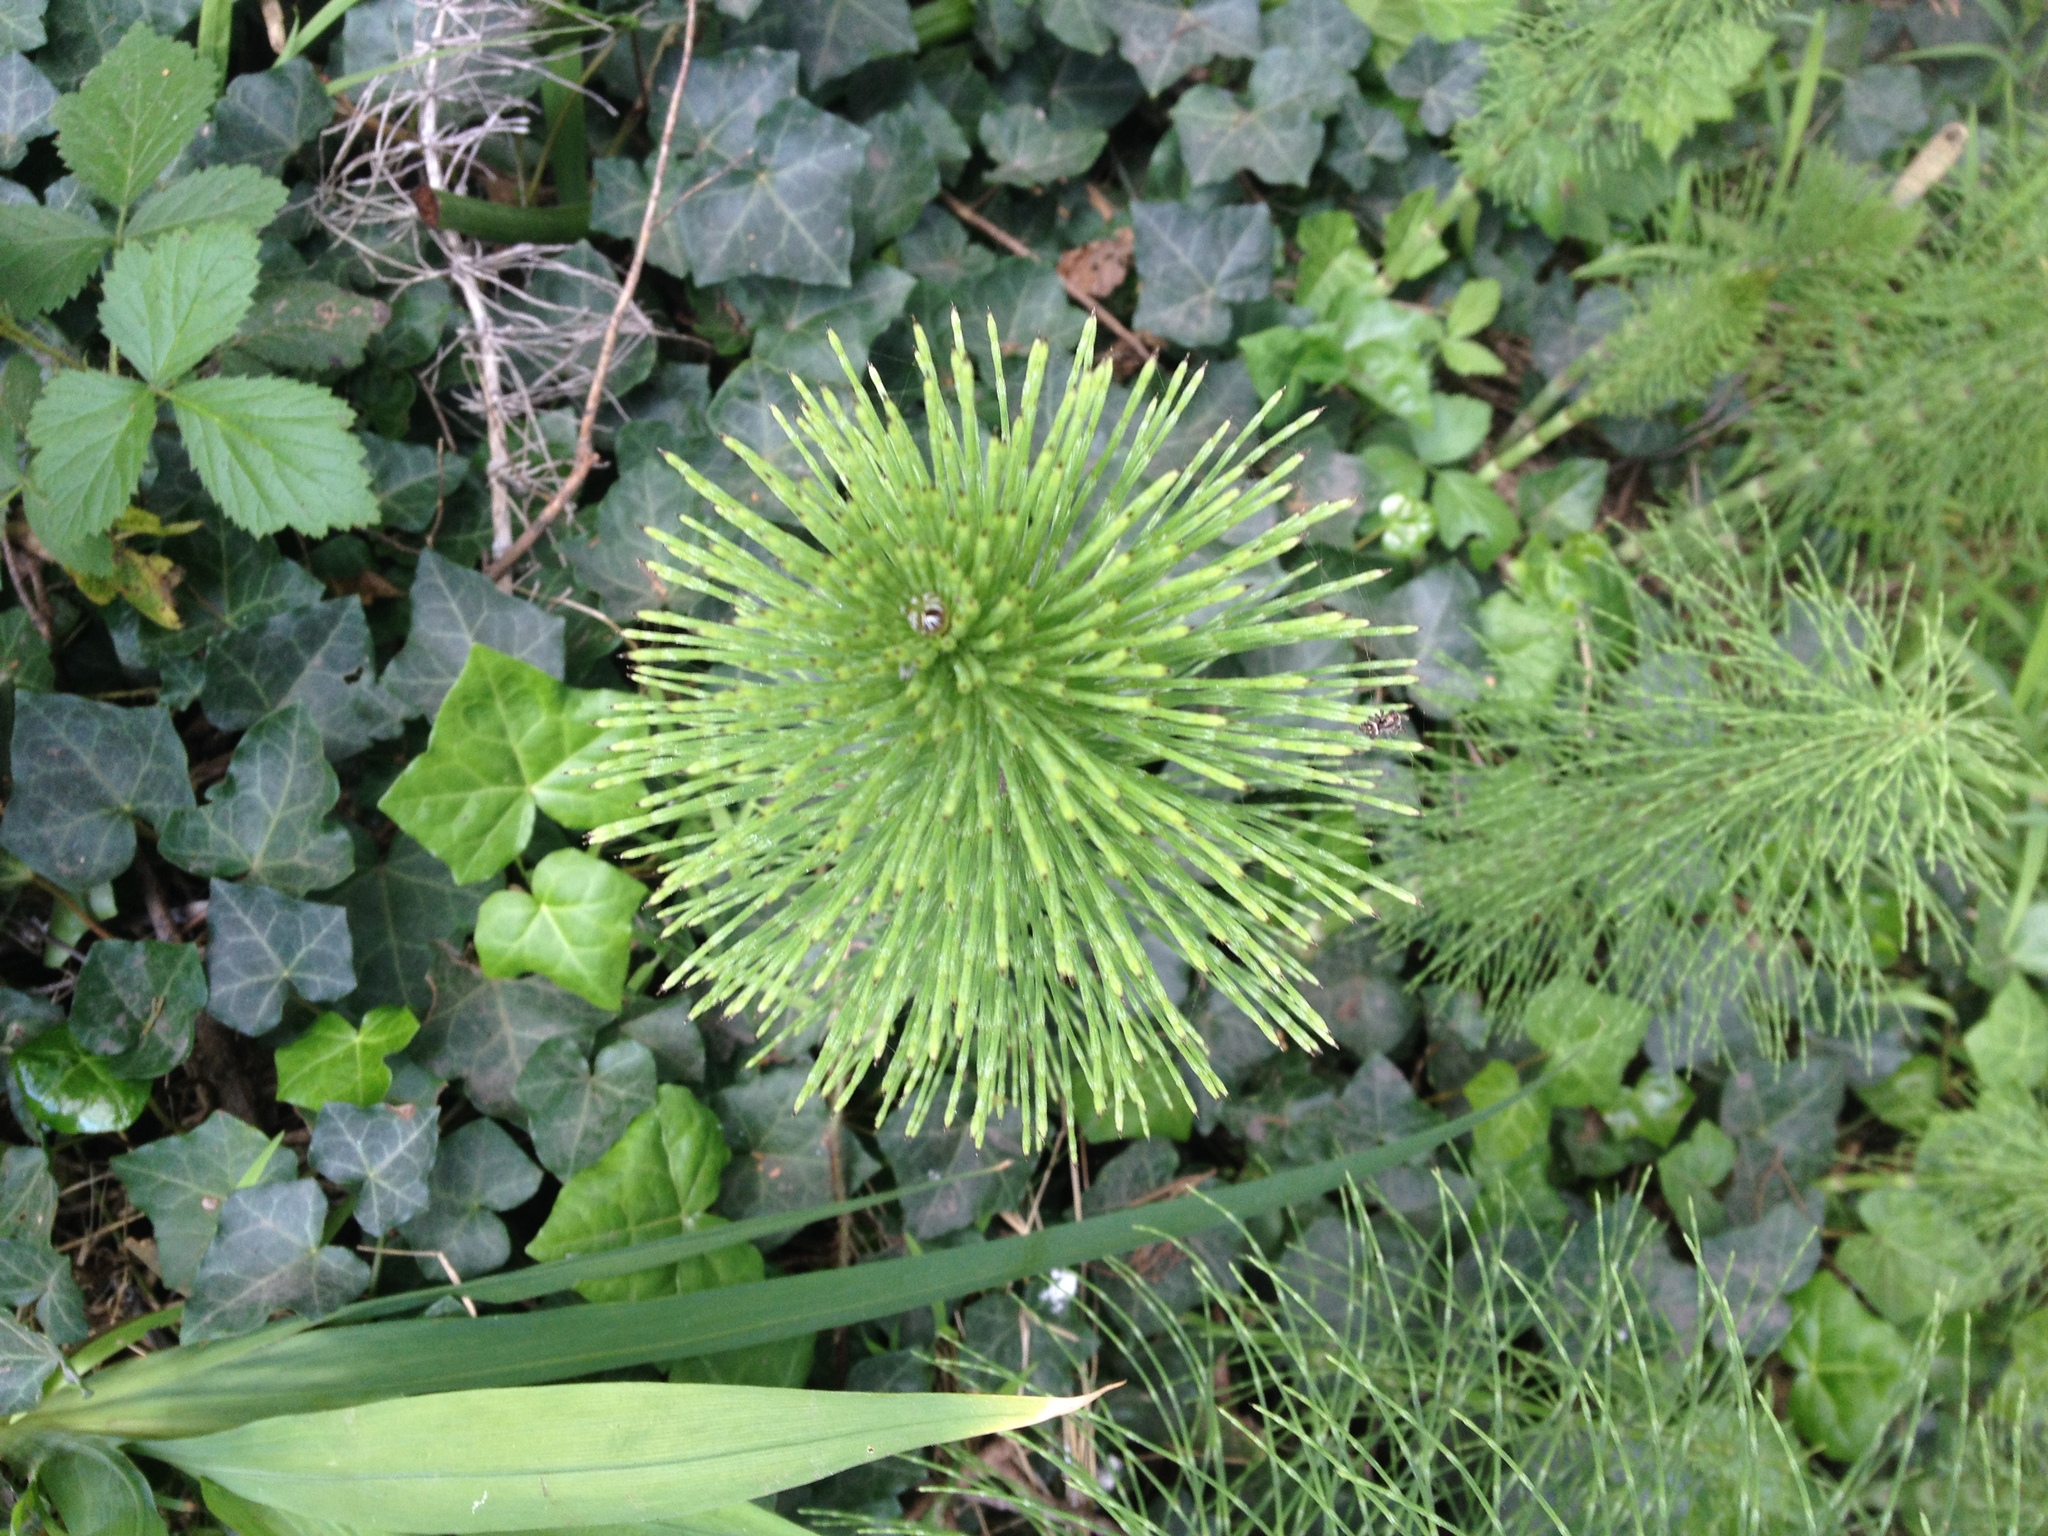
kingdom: Plantae
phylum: Tracheophyta
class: Polypodiopsida
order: Equisetales
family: Equisetaceae
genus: Equisetum
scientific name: Equisetum braunii
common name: Braun's horsetail
